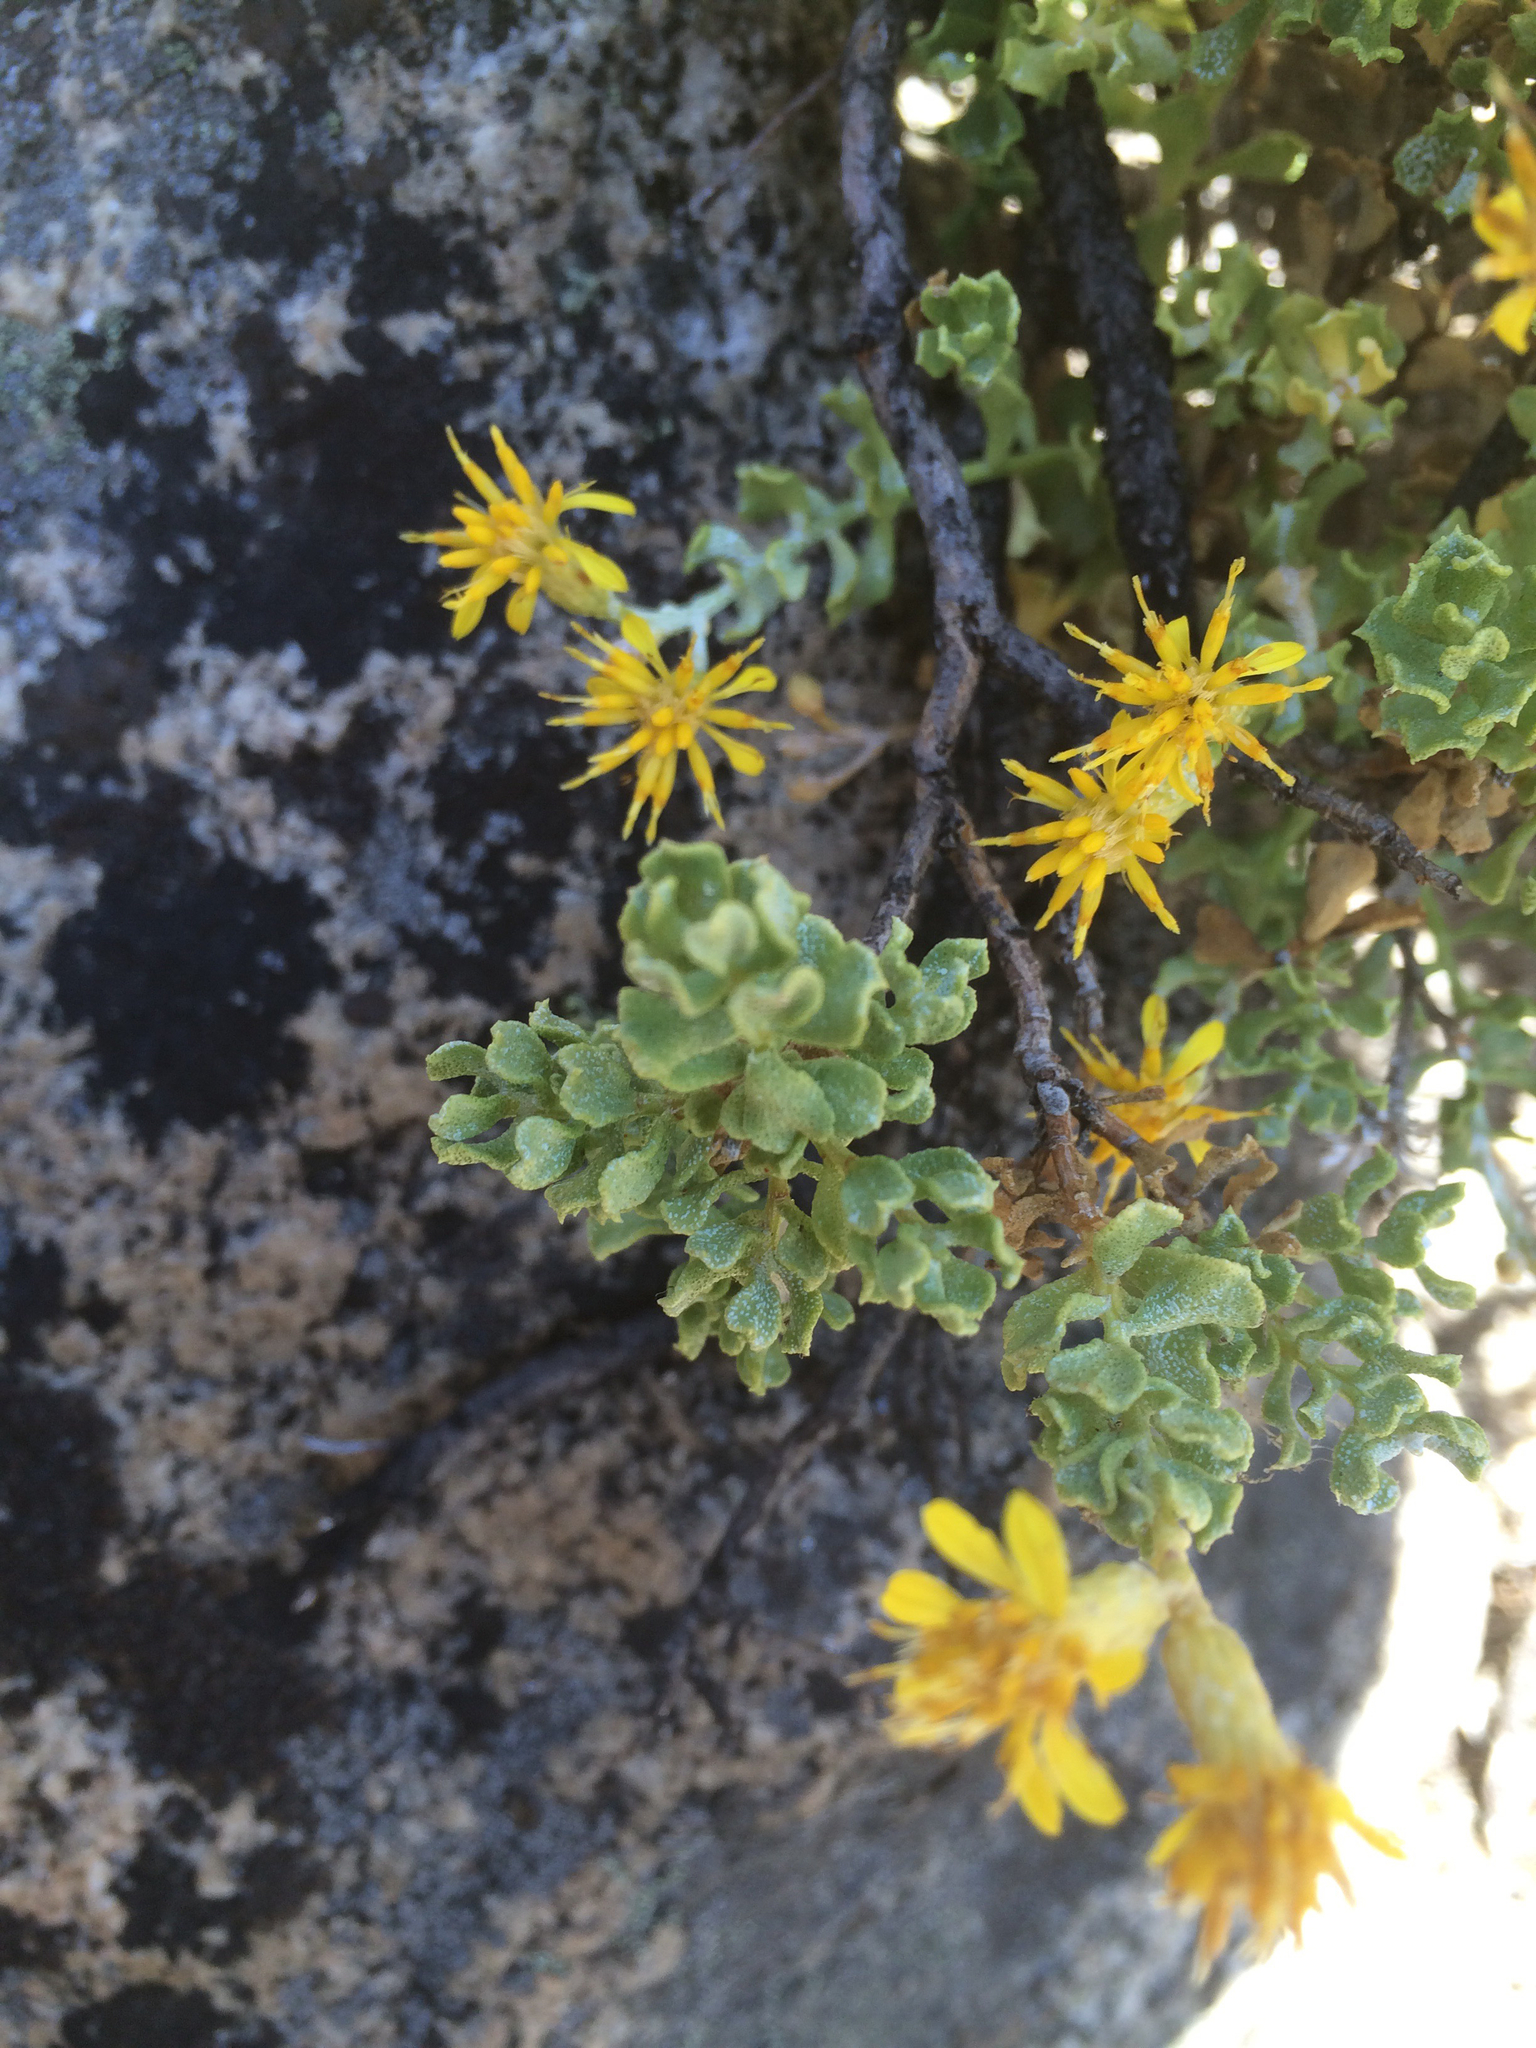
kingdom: Plantae
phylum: Tracheophyta
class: Magnoliopsida
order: Asterales
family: Asteraceae
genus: Ericameria
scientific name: Ericameria cuneata
